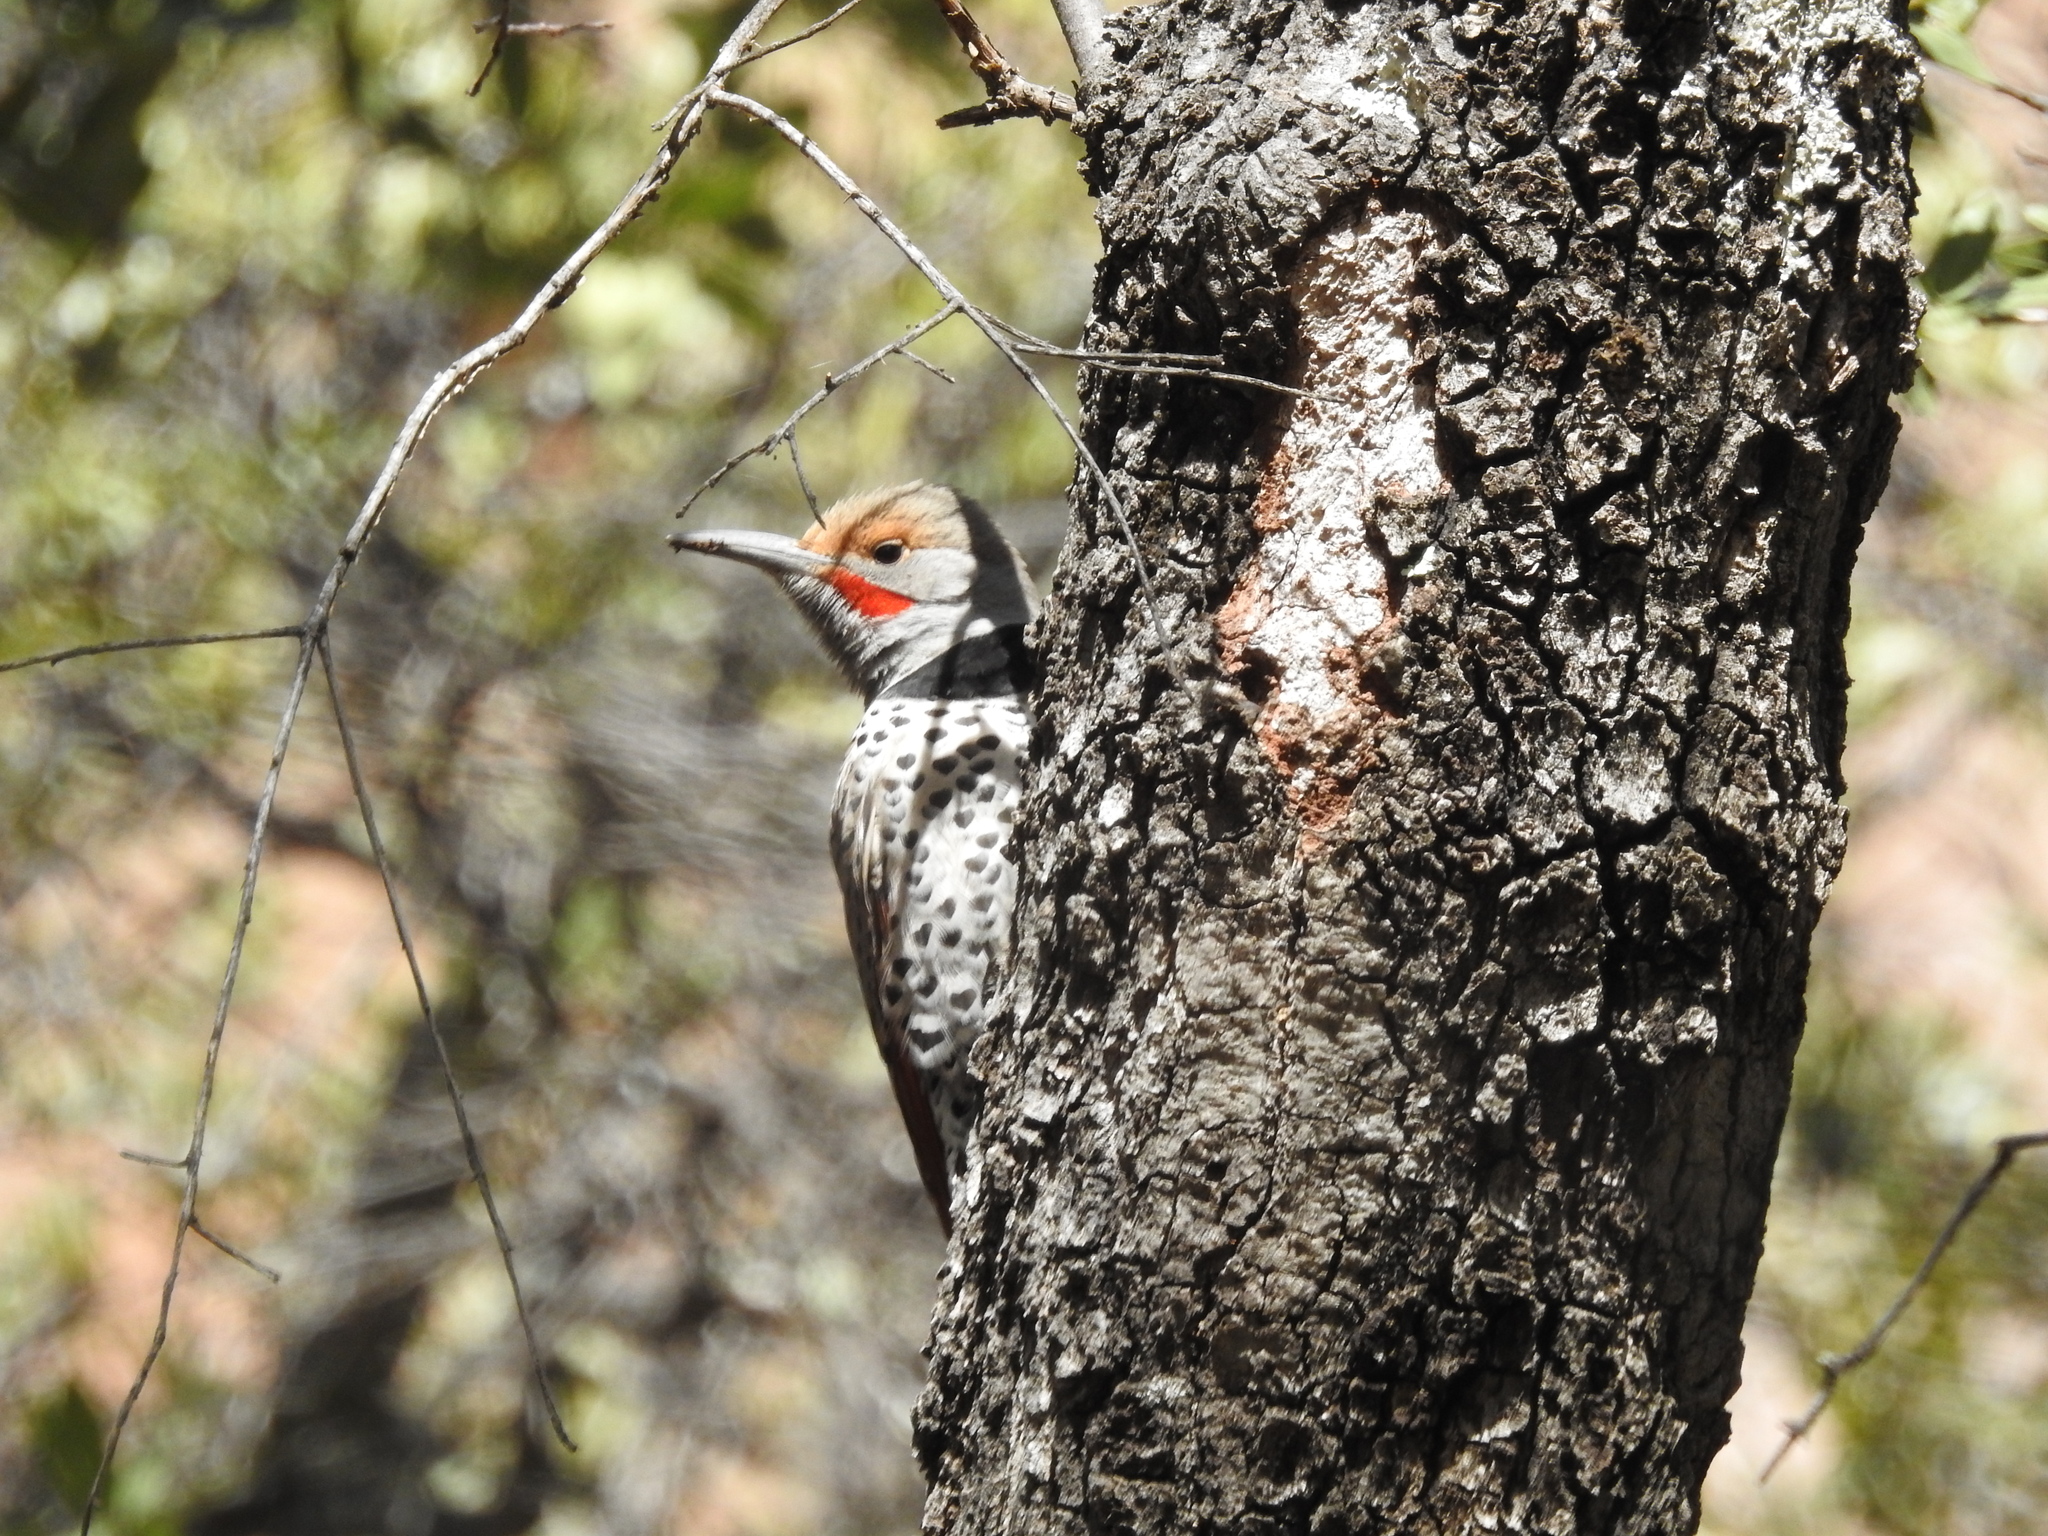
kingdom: Animalia
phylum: Chordata
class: Aves
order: Piciformes
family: Picidae
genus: Colaptes
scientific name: Colaptes auratus
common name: Northern flicker
